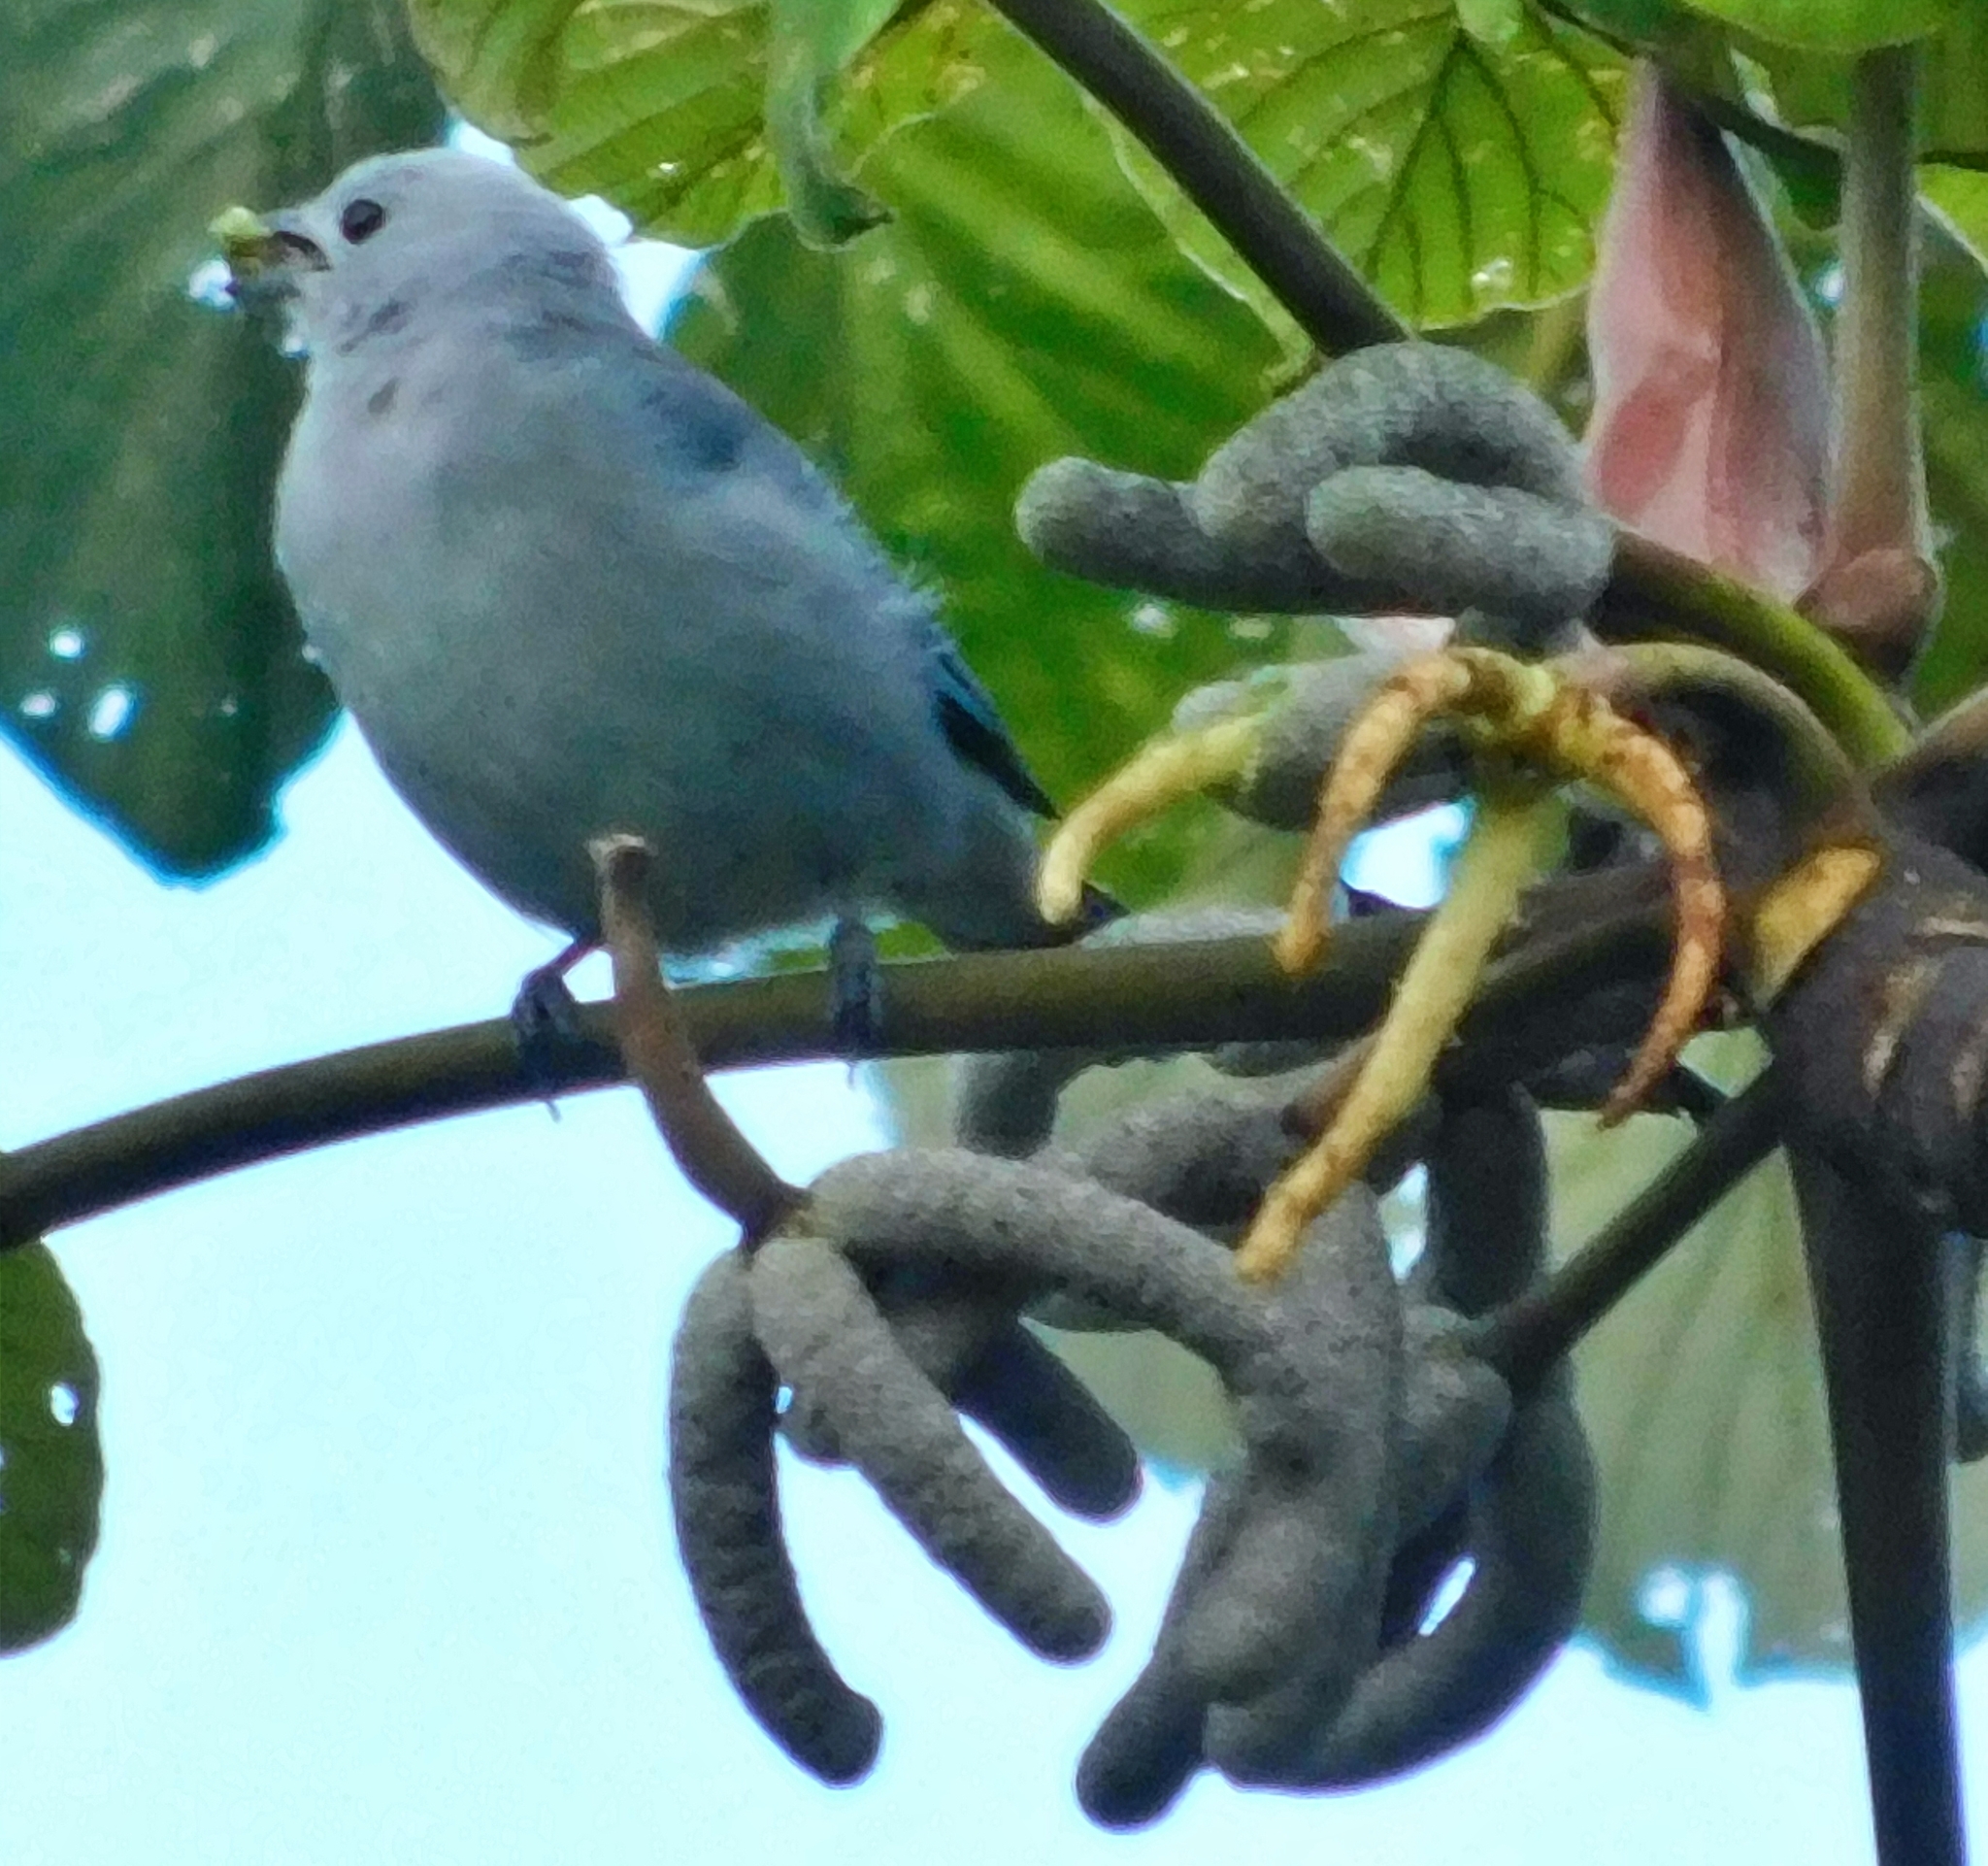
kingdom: Animalia
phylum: Chordata
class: Aves
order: Passeriformes
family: Thraupidae
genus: Thraupis
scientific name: Thraupis episcopus
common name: Blue-grey tanager
